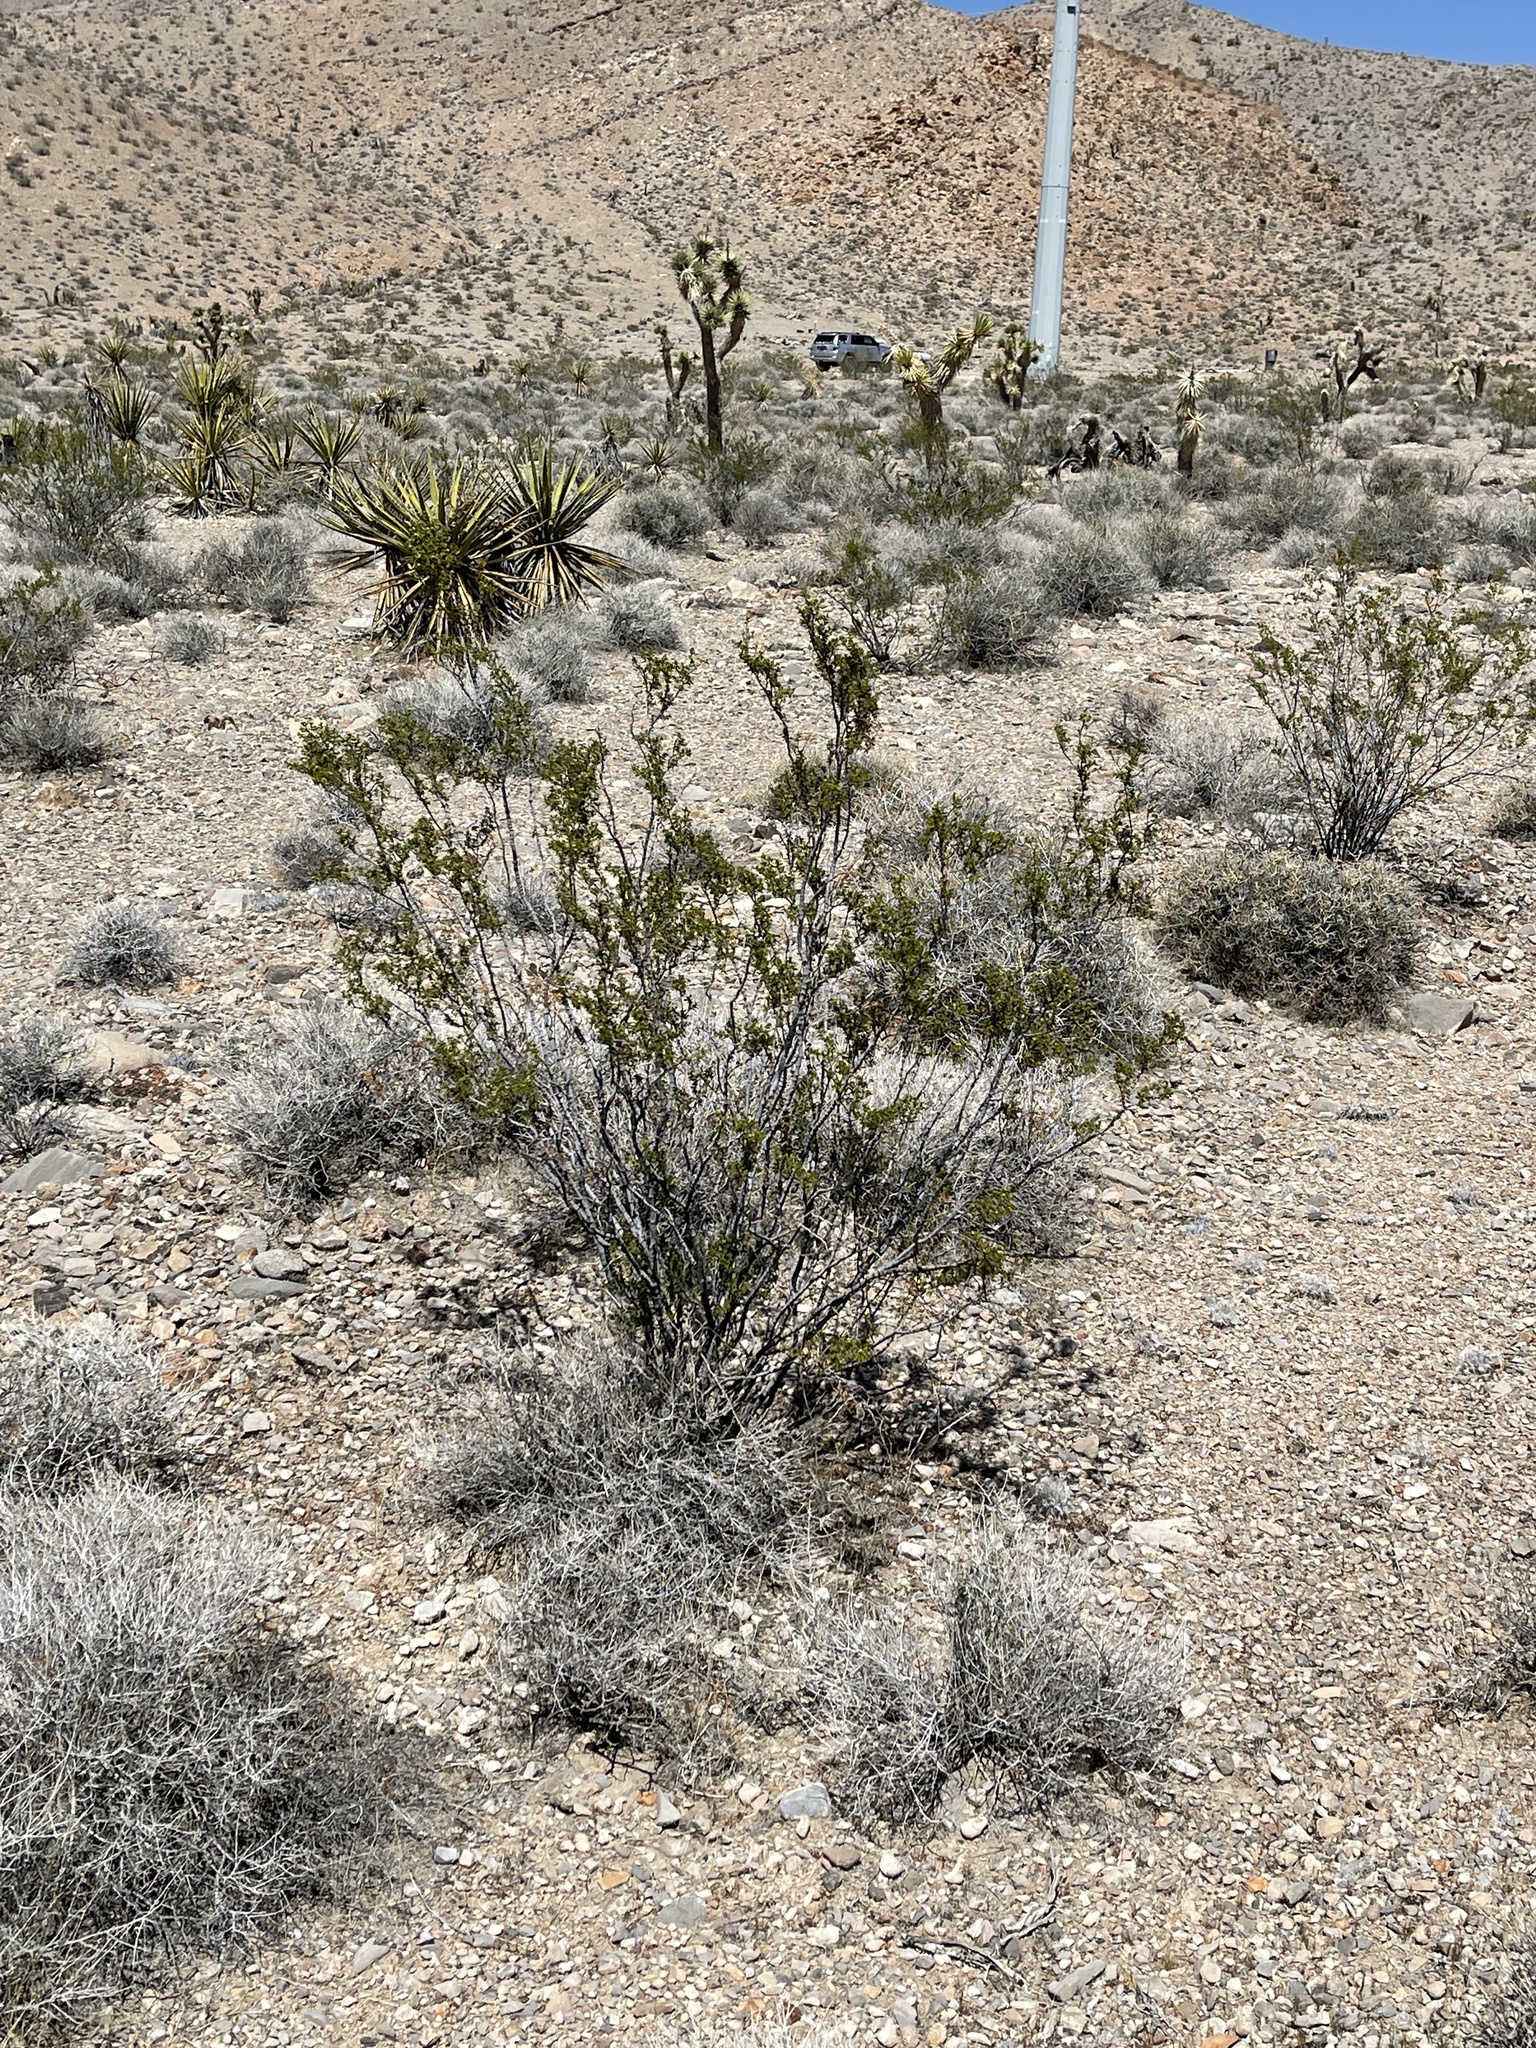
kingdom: Plantae
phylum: Tracheophyta
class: Magnoliopsida
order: Zygophyllales
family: Zygophyllaceae
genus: Larrea
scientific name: Larrea tridentata
